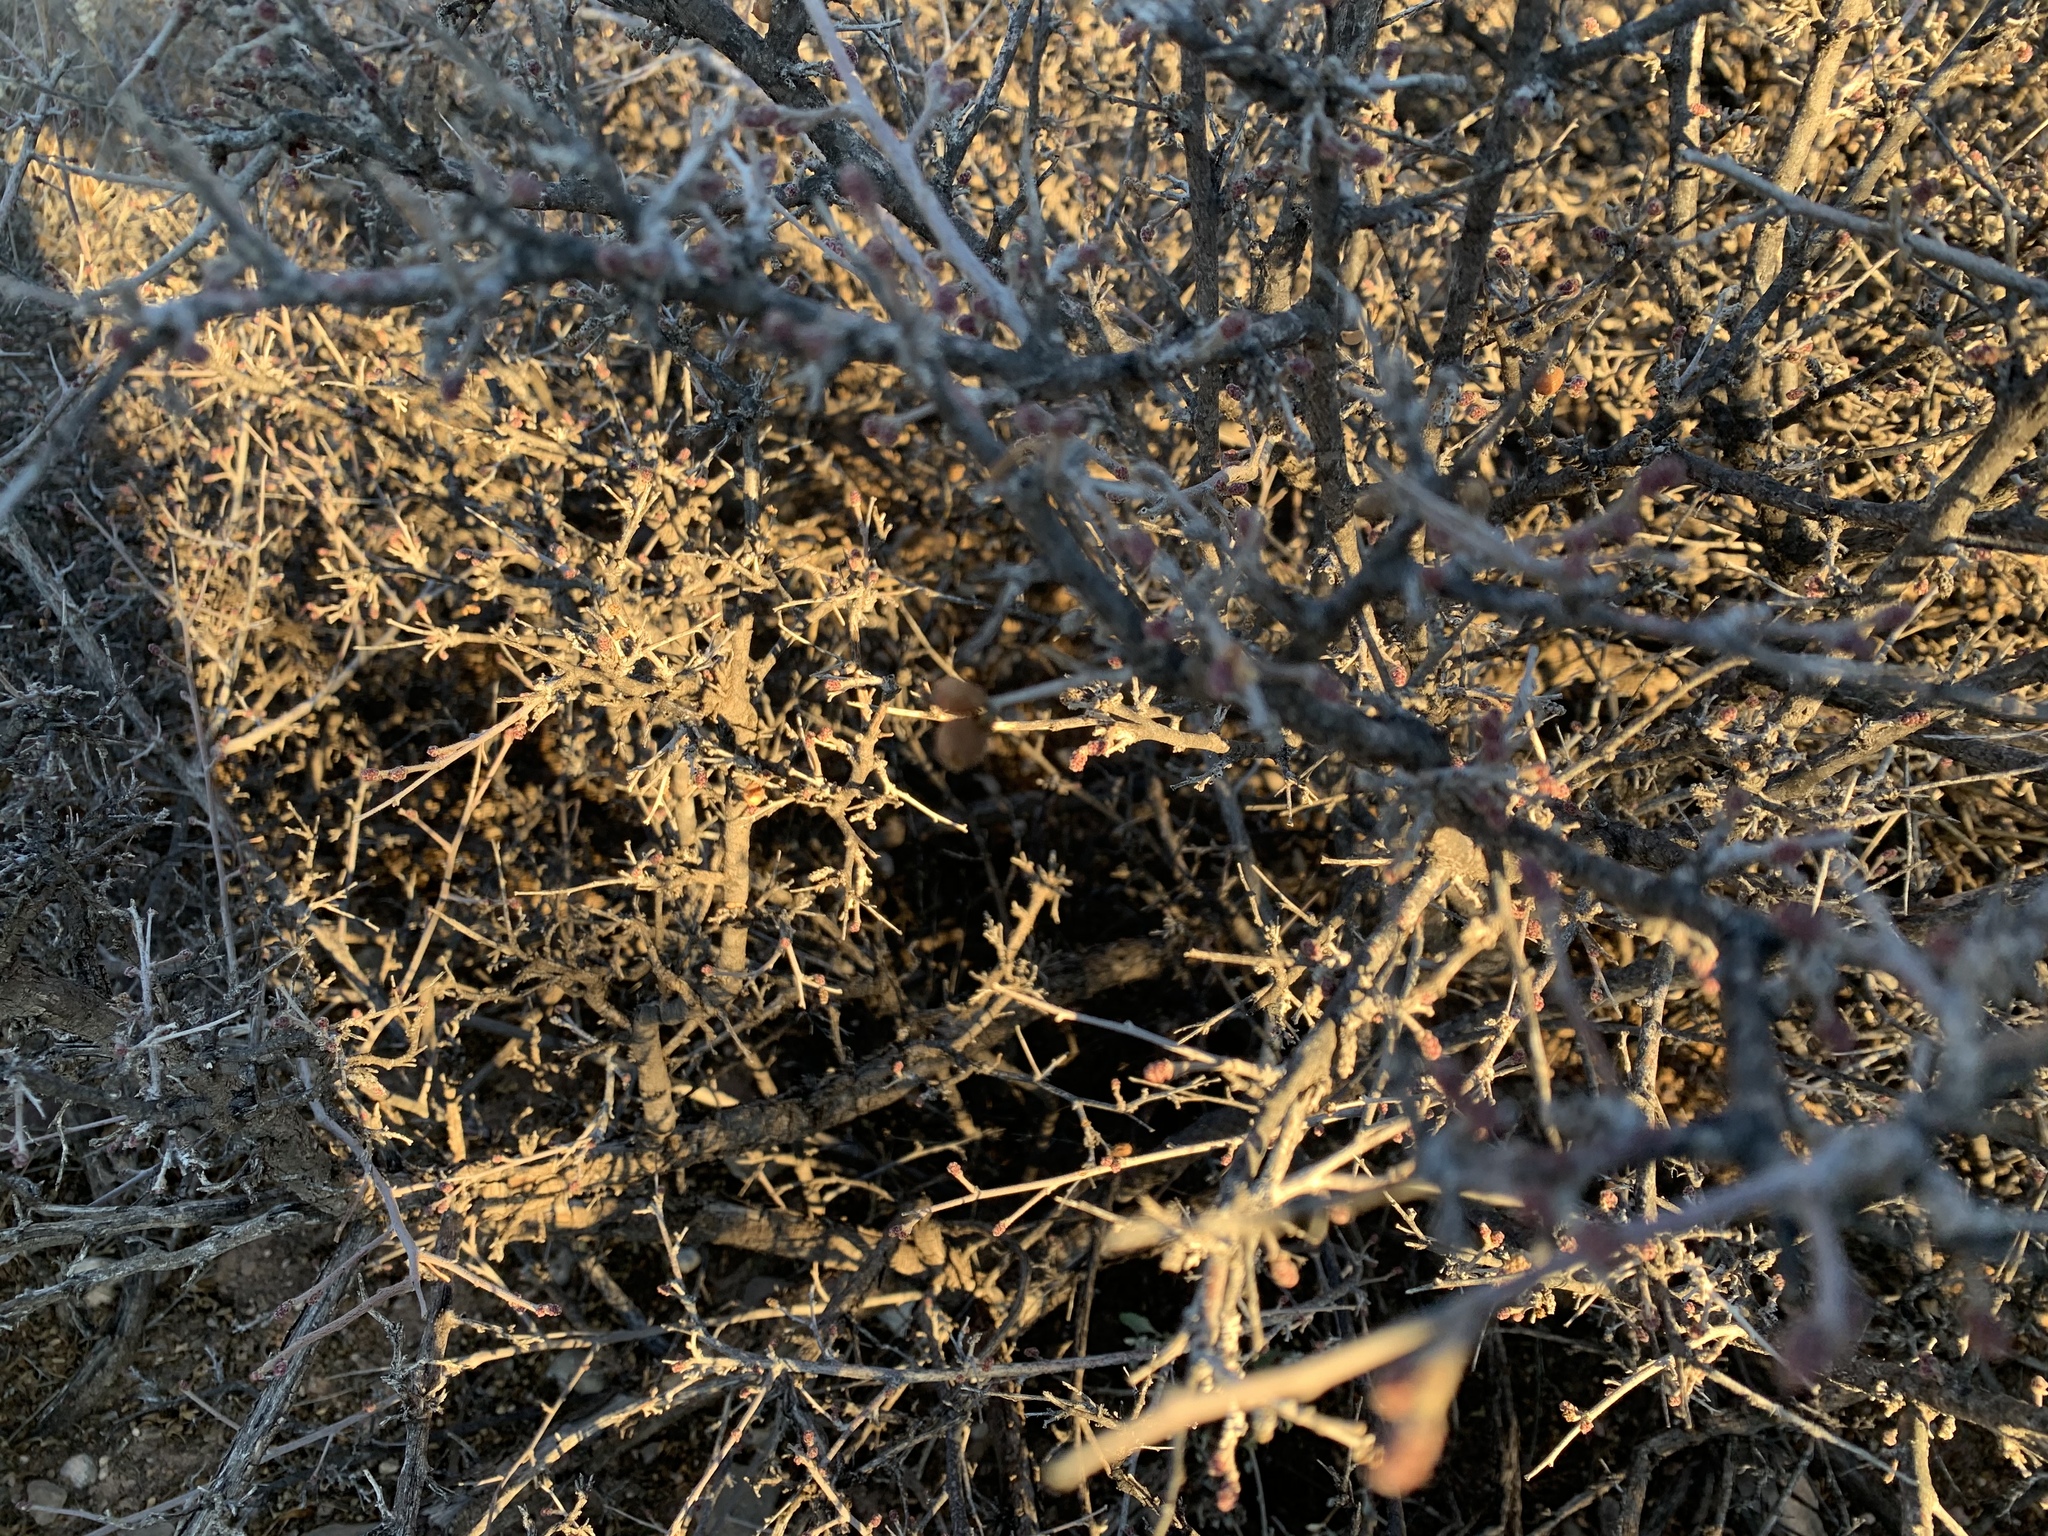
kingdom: Plantae
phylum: Tracheophyta
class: Magnoliopsida
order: Sapindales
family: Anacardiaceae
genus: Rhus
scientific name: Rhus microphylla
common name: Desert sumac
